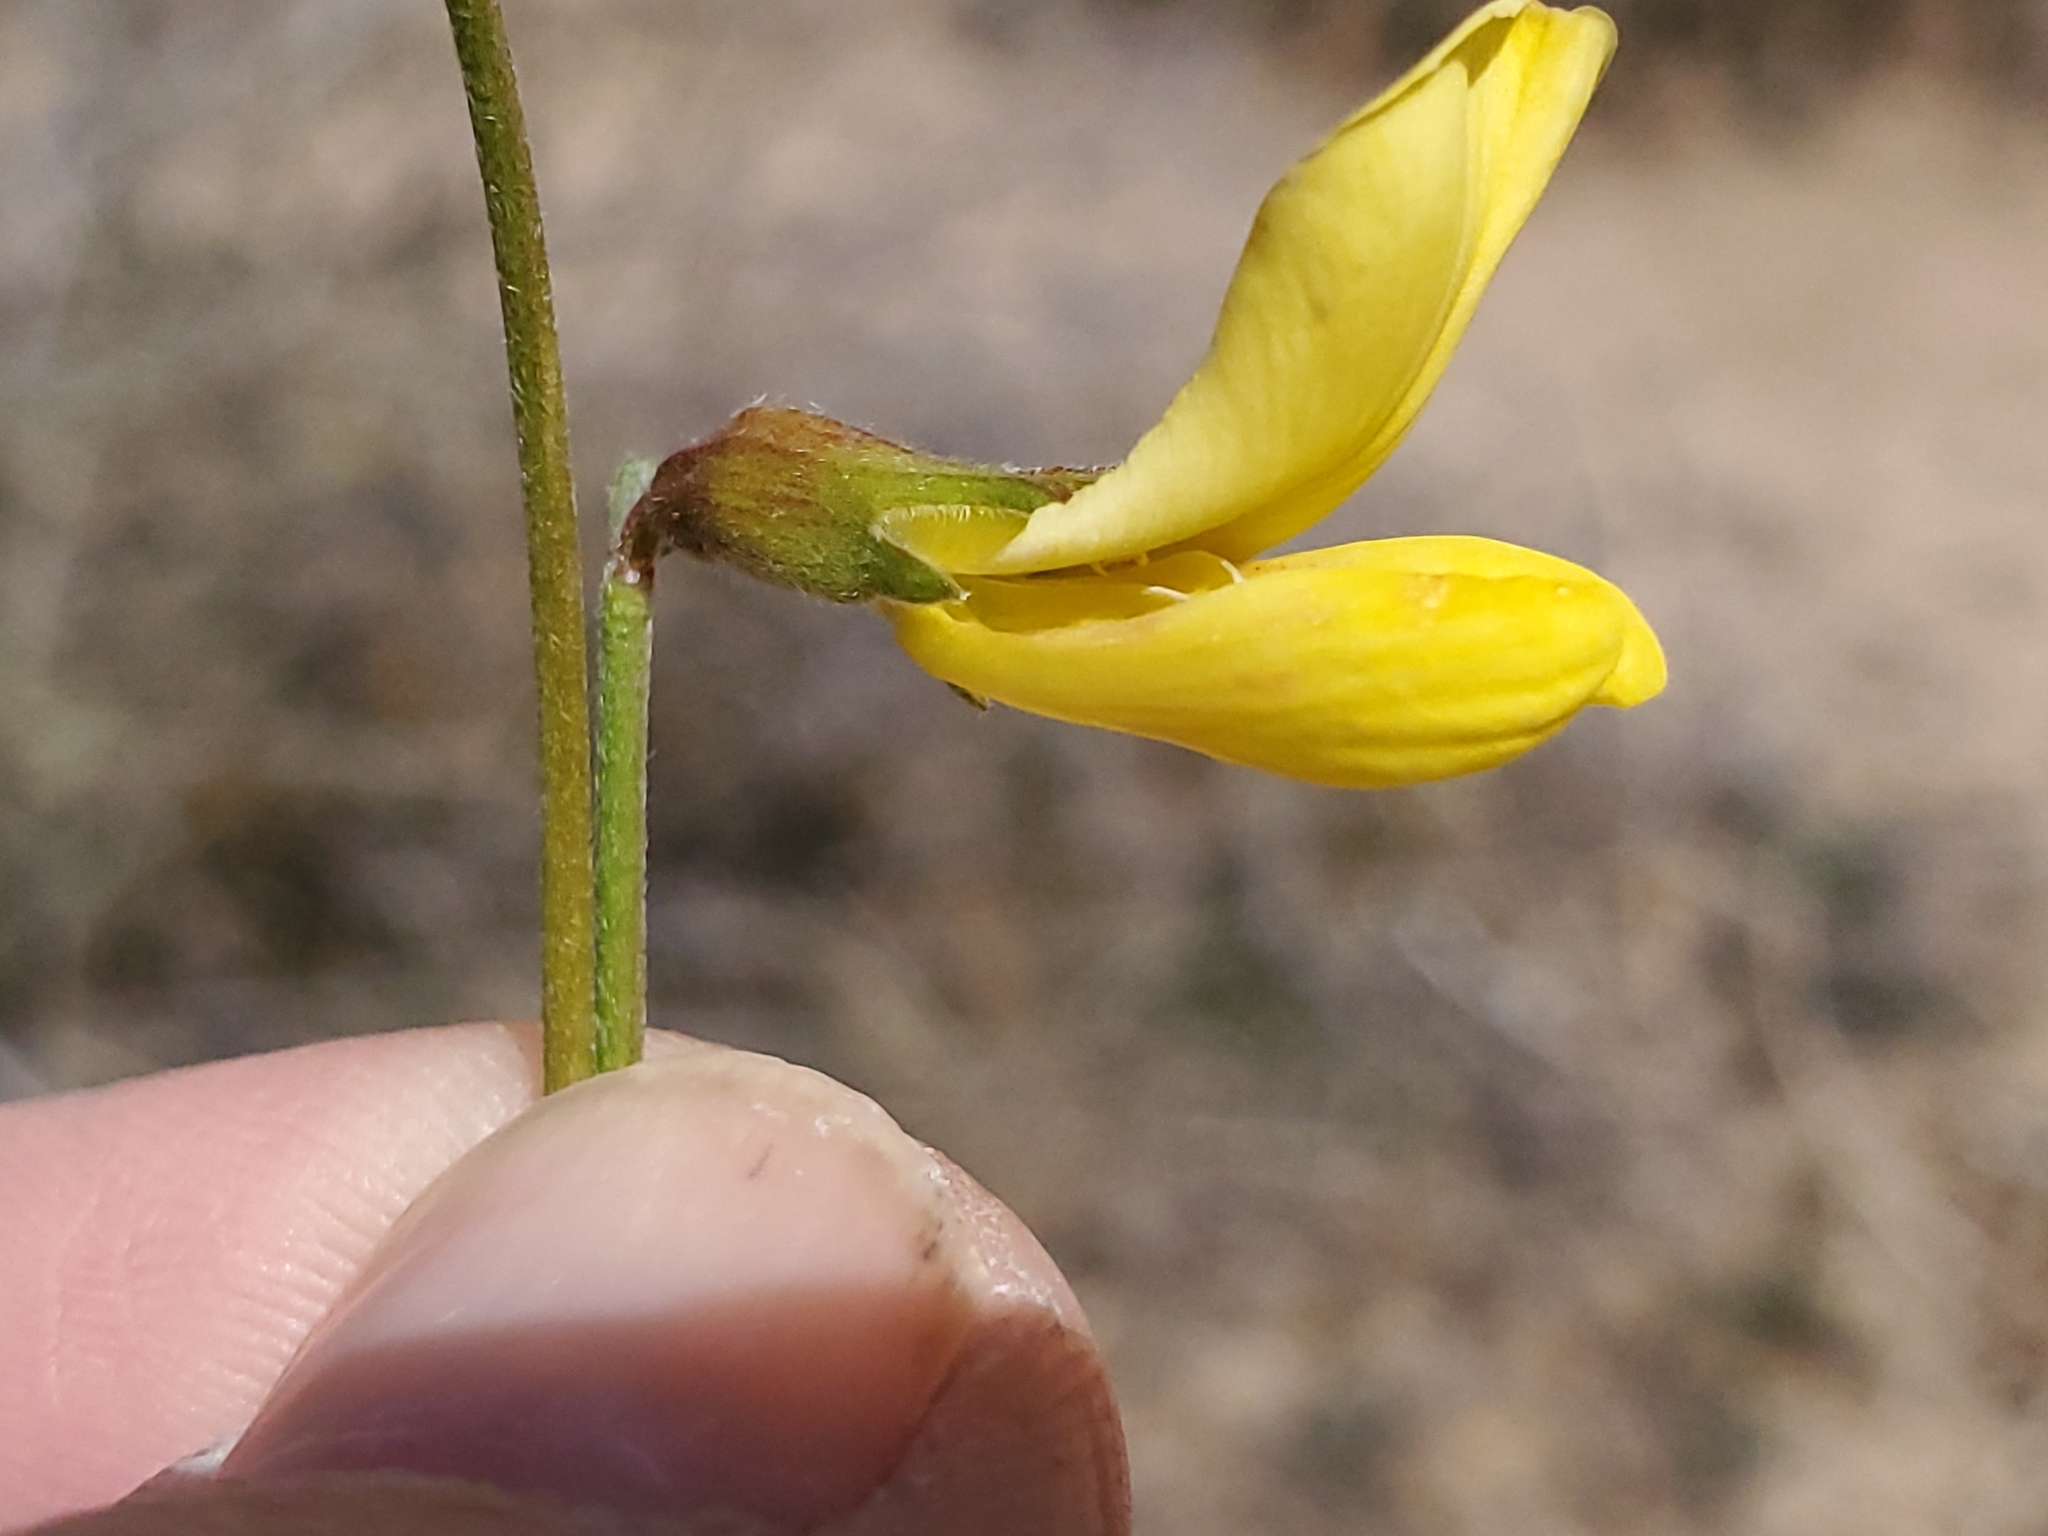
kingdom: Plantae
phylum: Tracheophyta
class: Magnoliopsida
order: Fabales
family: Fabaceae
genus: Acmispon
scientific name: Acmispon rigidus
